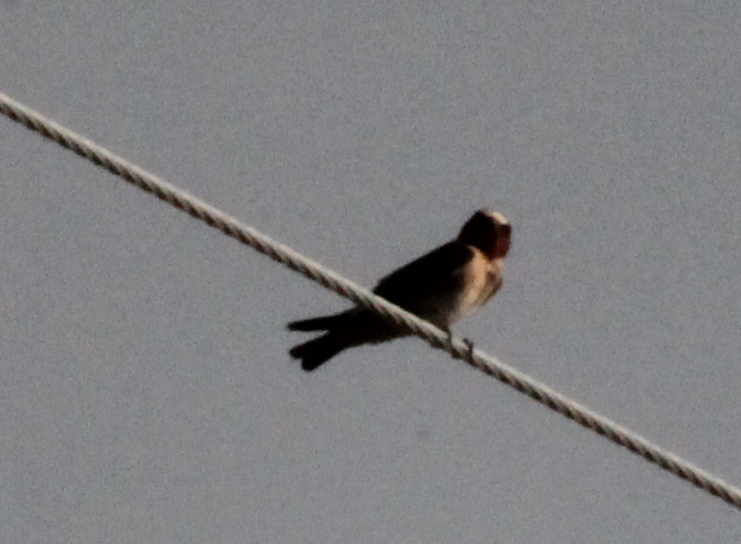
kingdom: Animalia
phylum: Chordata
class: Aves
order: Passeriformes
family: Hirundinidae
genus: Petrochelidon
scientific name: Petrochelidon pyrrhonota
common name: American cliff swallow
